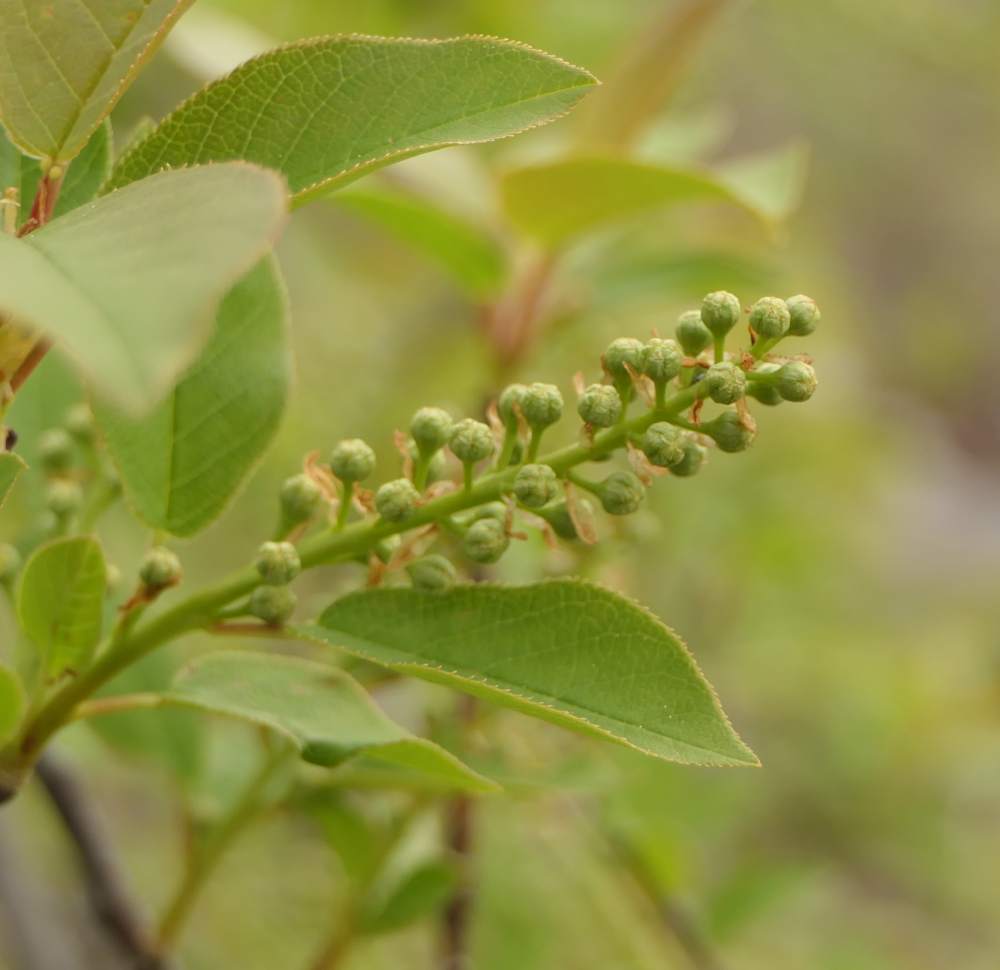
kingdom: Plantae
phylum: Tracheophyta
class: Magnoliopsida
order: Rosales
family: Rosaceae
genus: Prunus
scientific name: Prunus virginiana
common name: Chokecherry
